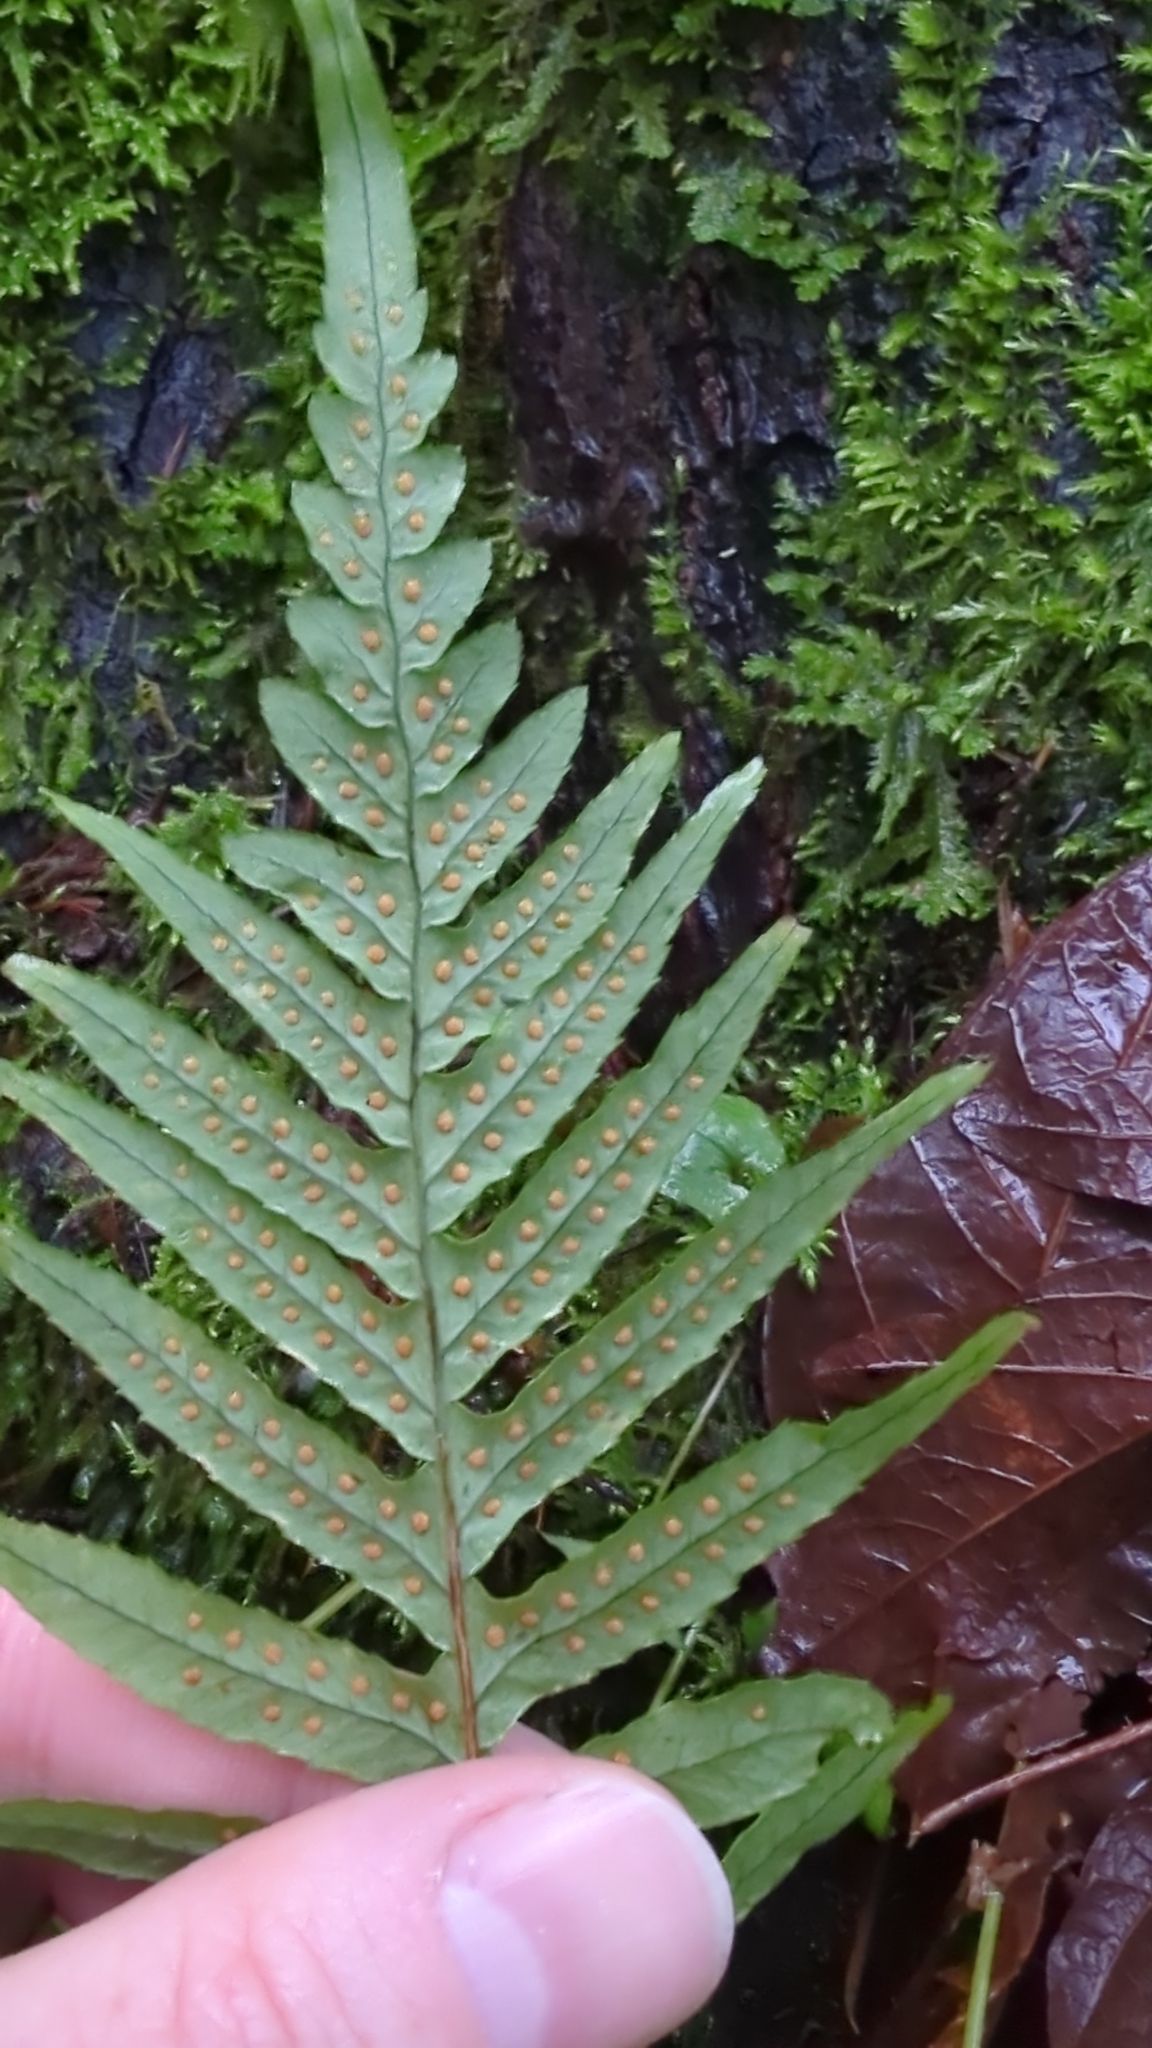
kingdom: Plantae
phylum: Tracheophyta
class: Polypodiopsida
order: Polypodiales
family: Polypodiaceae
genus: Polypodium
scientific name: Polypodium glycyrrhiza
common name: Licorice fern
